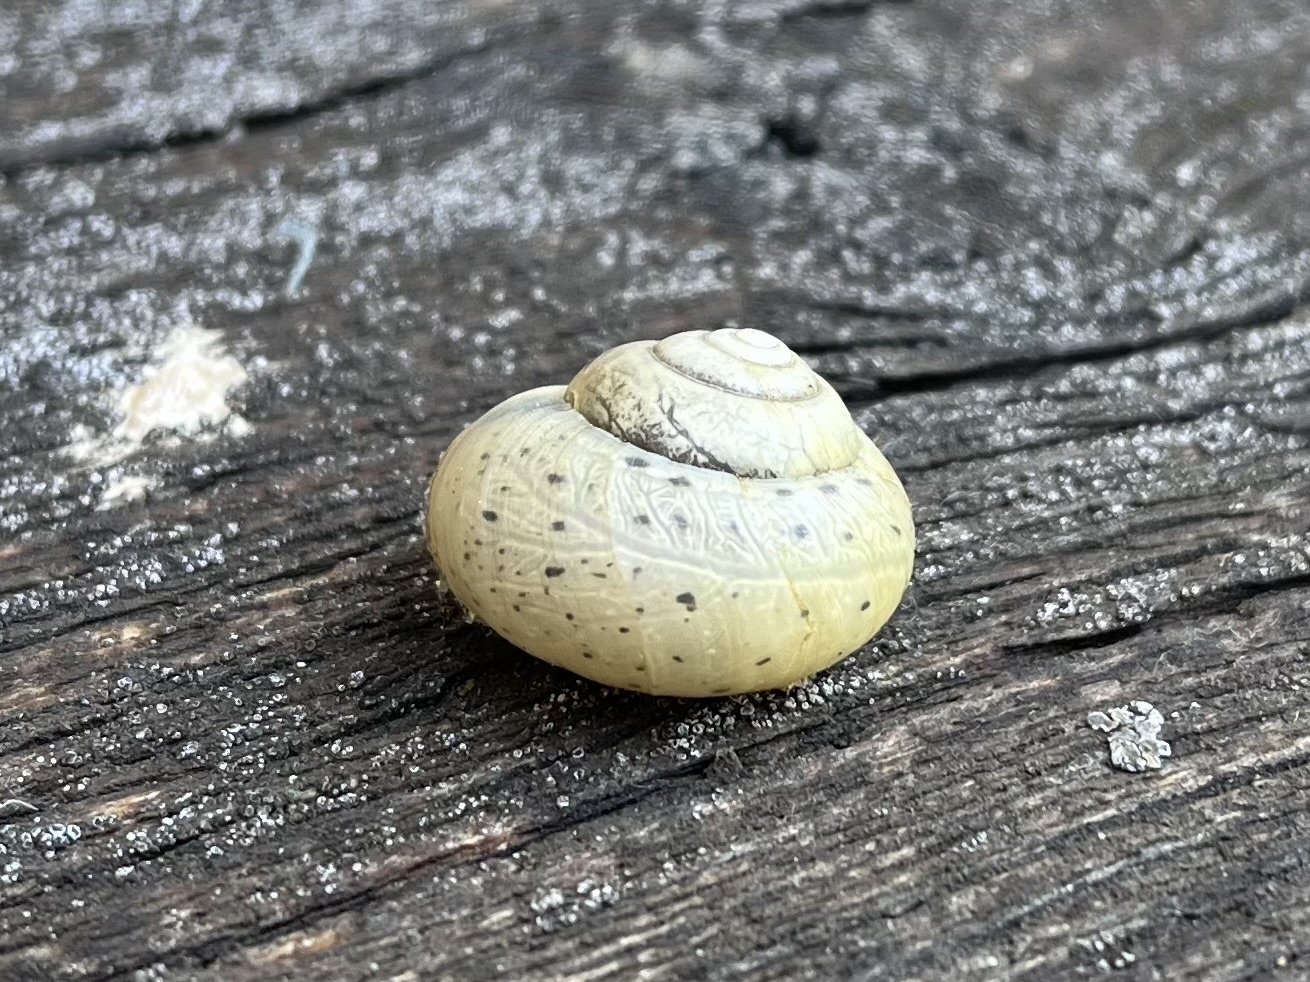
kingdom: Animalia
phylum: Mollusca
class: Gastropoda
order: Stylommatophora
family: Camaenidae
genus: Fruticicola
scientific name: Fruticicola fruticum
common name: Bush snail
